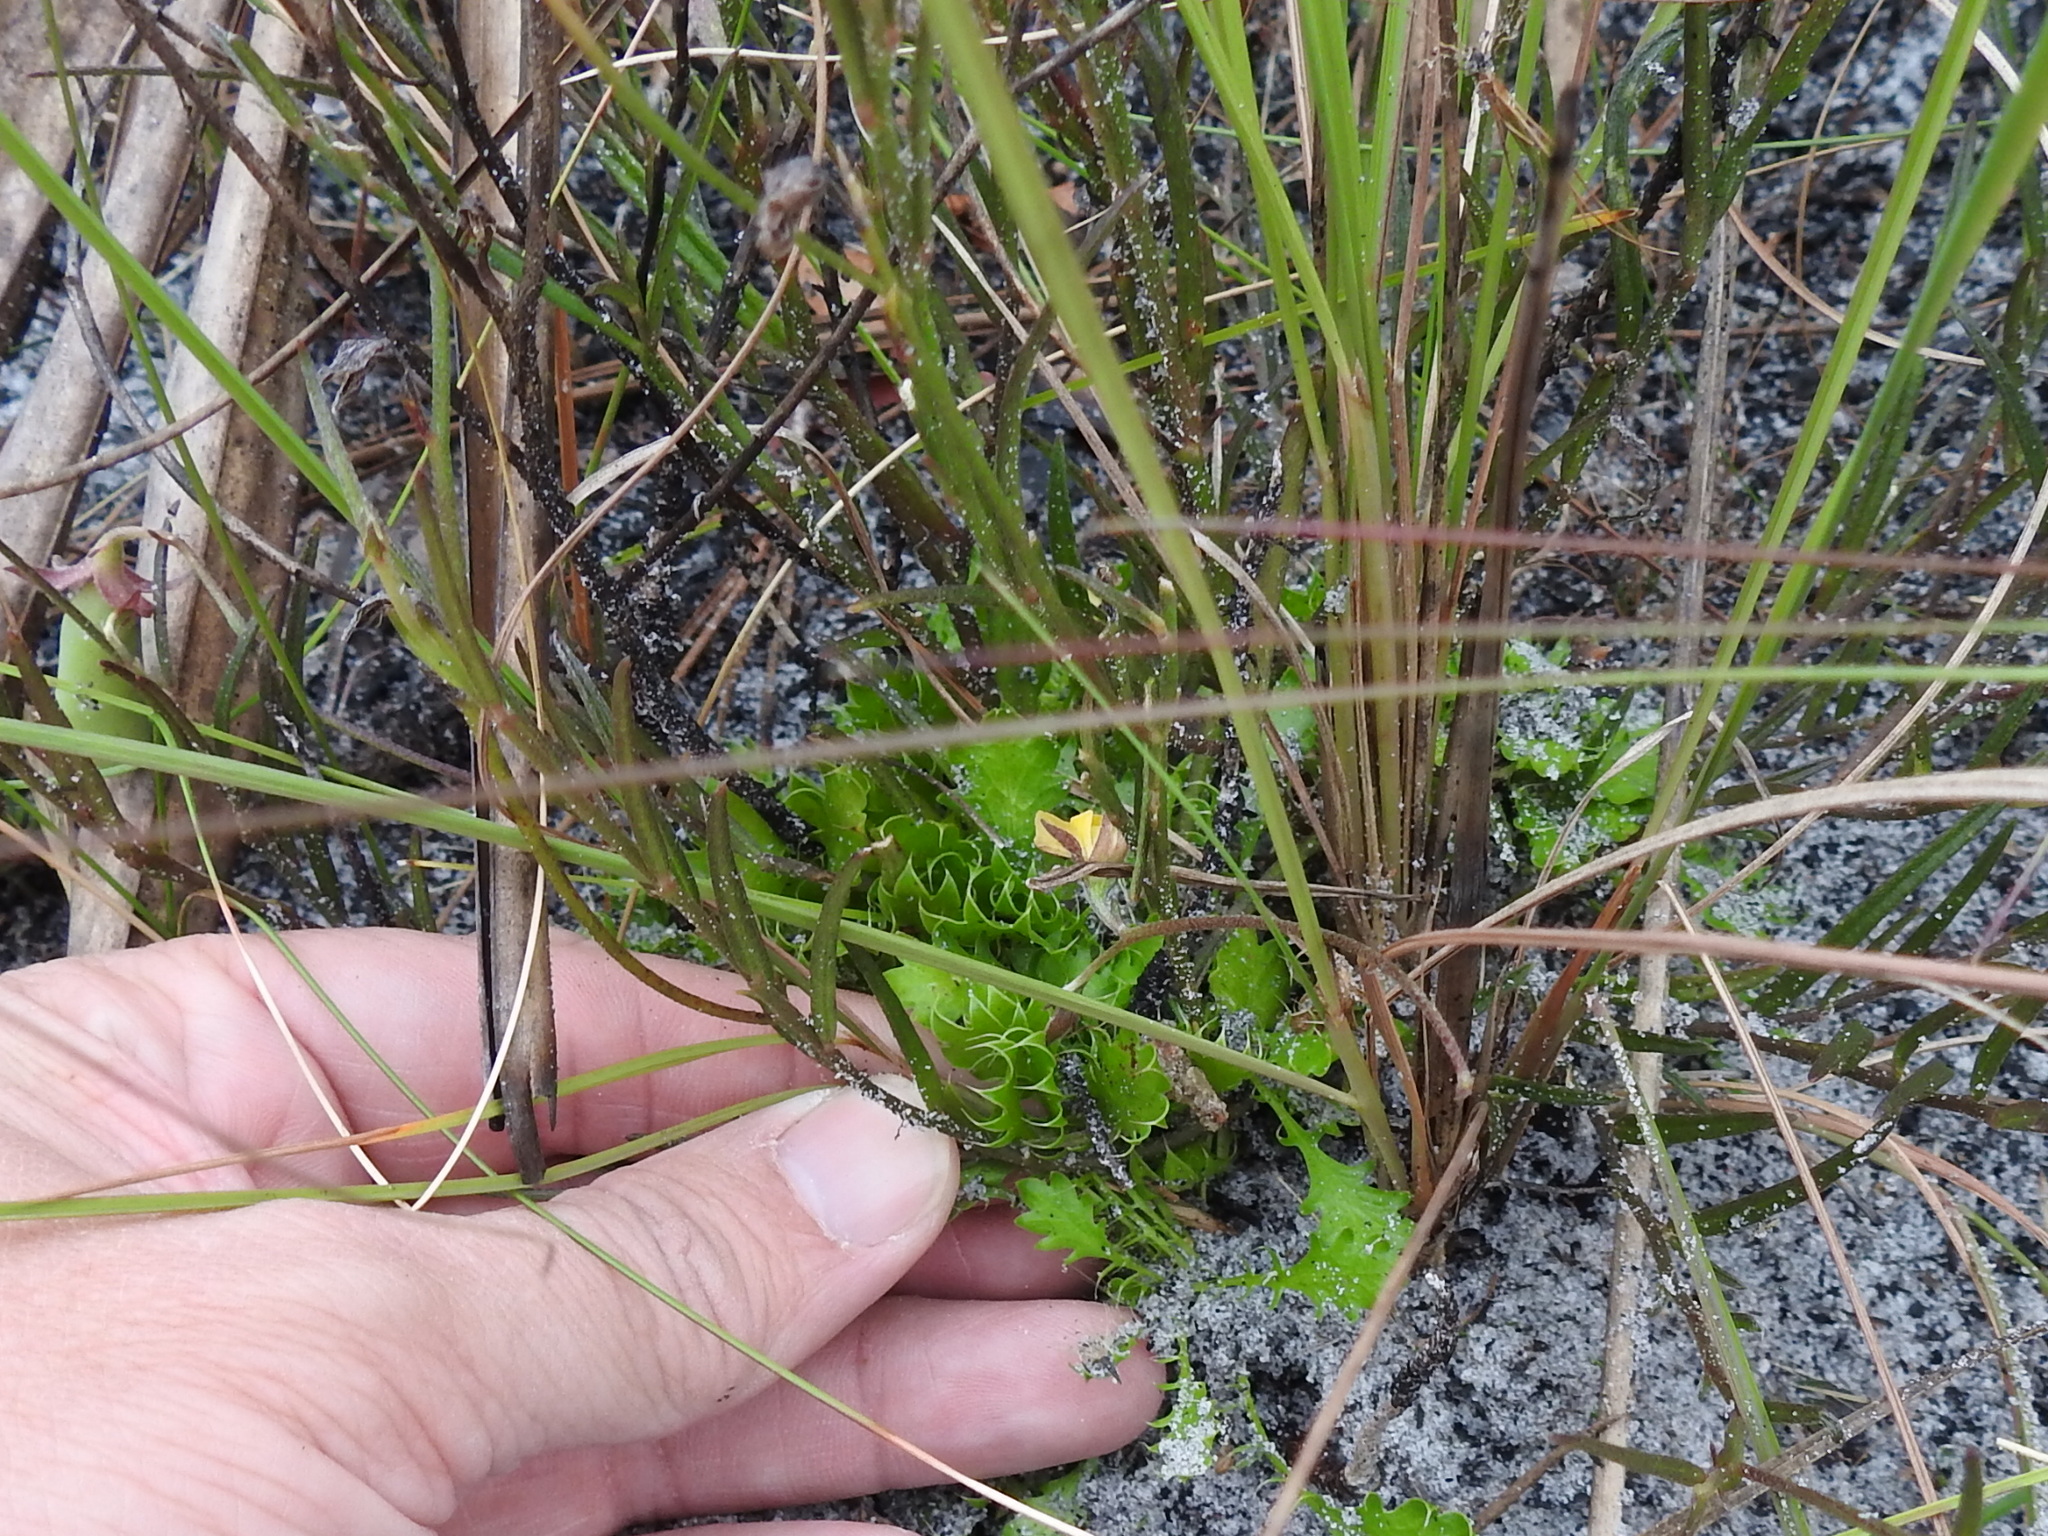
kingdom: Plantae
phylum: Tracheophyta
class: Magnoliopsida
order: Fabales
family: Fabaceae
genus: Crotalaria
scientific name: Crotalaria rotundifolia
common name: Prostrate rattlebox
